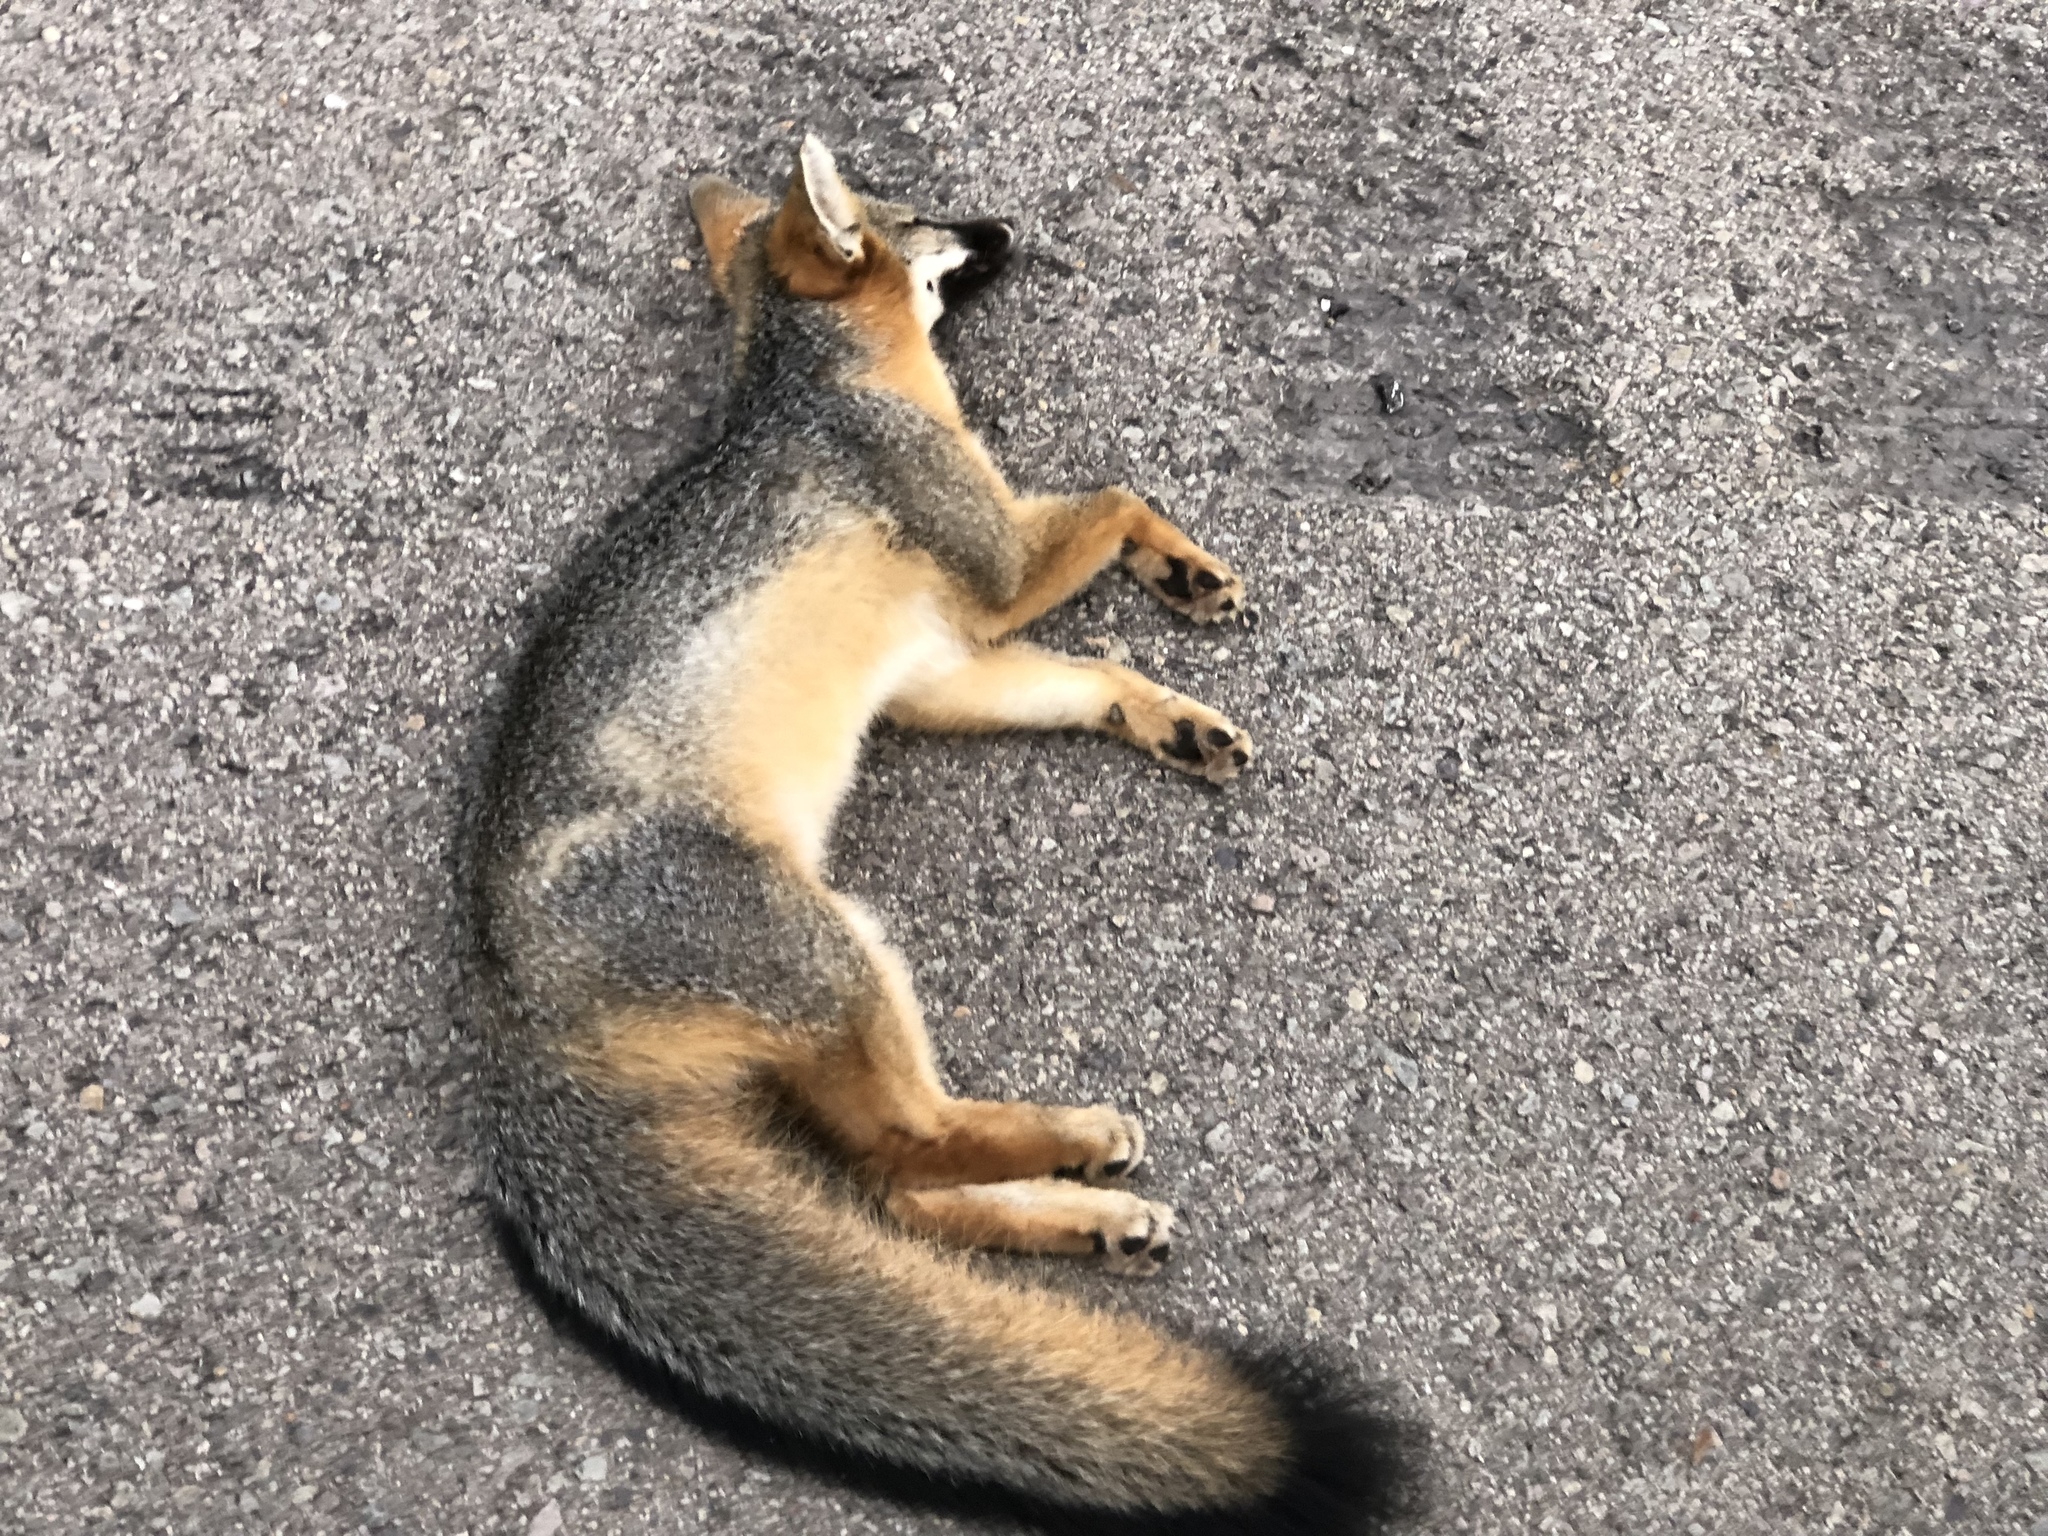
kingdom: Animalia
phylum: Chordata
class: Mammalia
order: Carnivora
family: Canidae
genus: Urocyon
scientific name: Urocyon cinereoargenteus
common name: Gray fox
